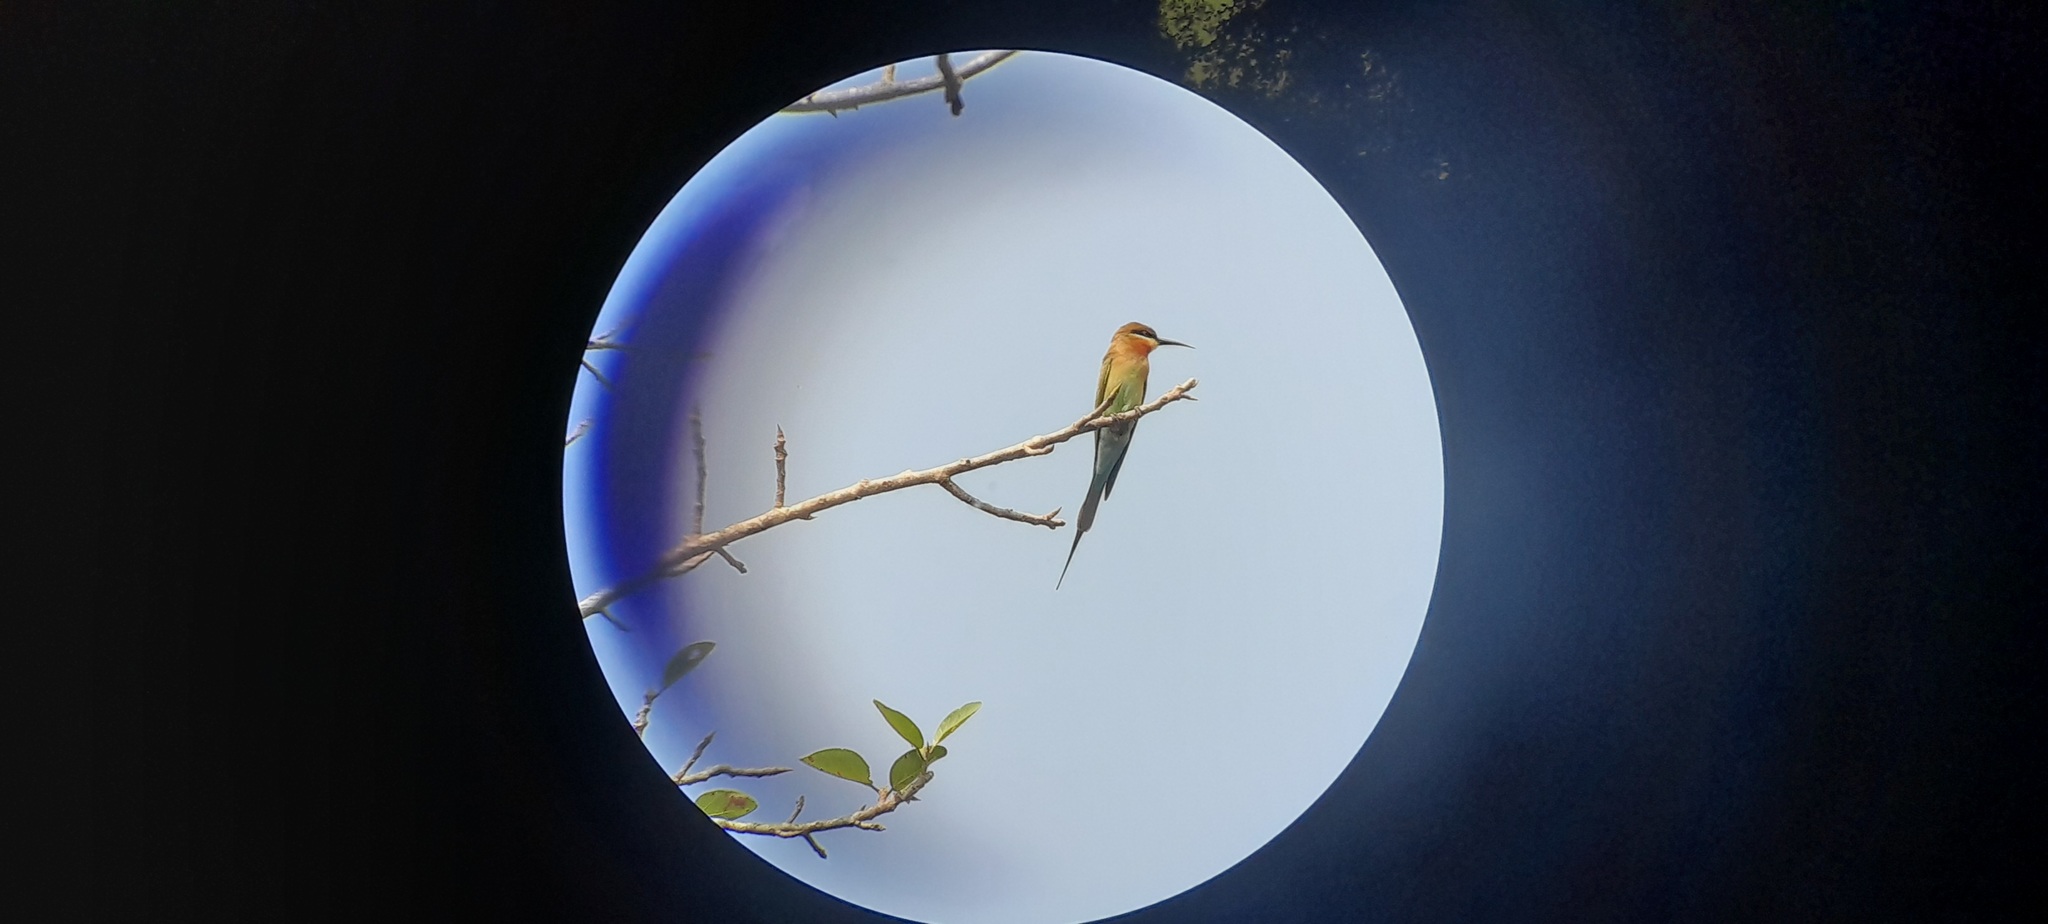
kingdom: Animalia
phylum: Chordata
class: Aves
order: Coraciiformes
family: Meropidae
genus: Merops
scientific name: Merops philippinus
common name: Blue-tailed bee-eater
